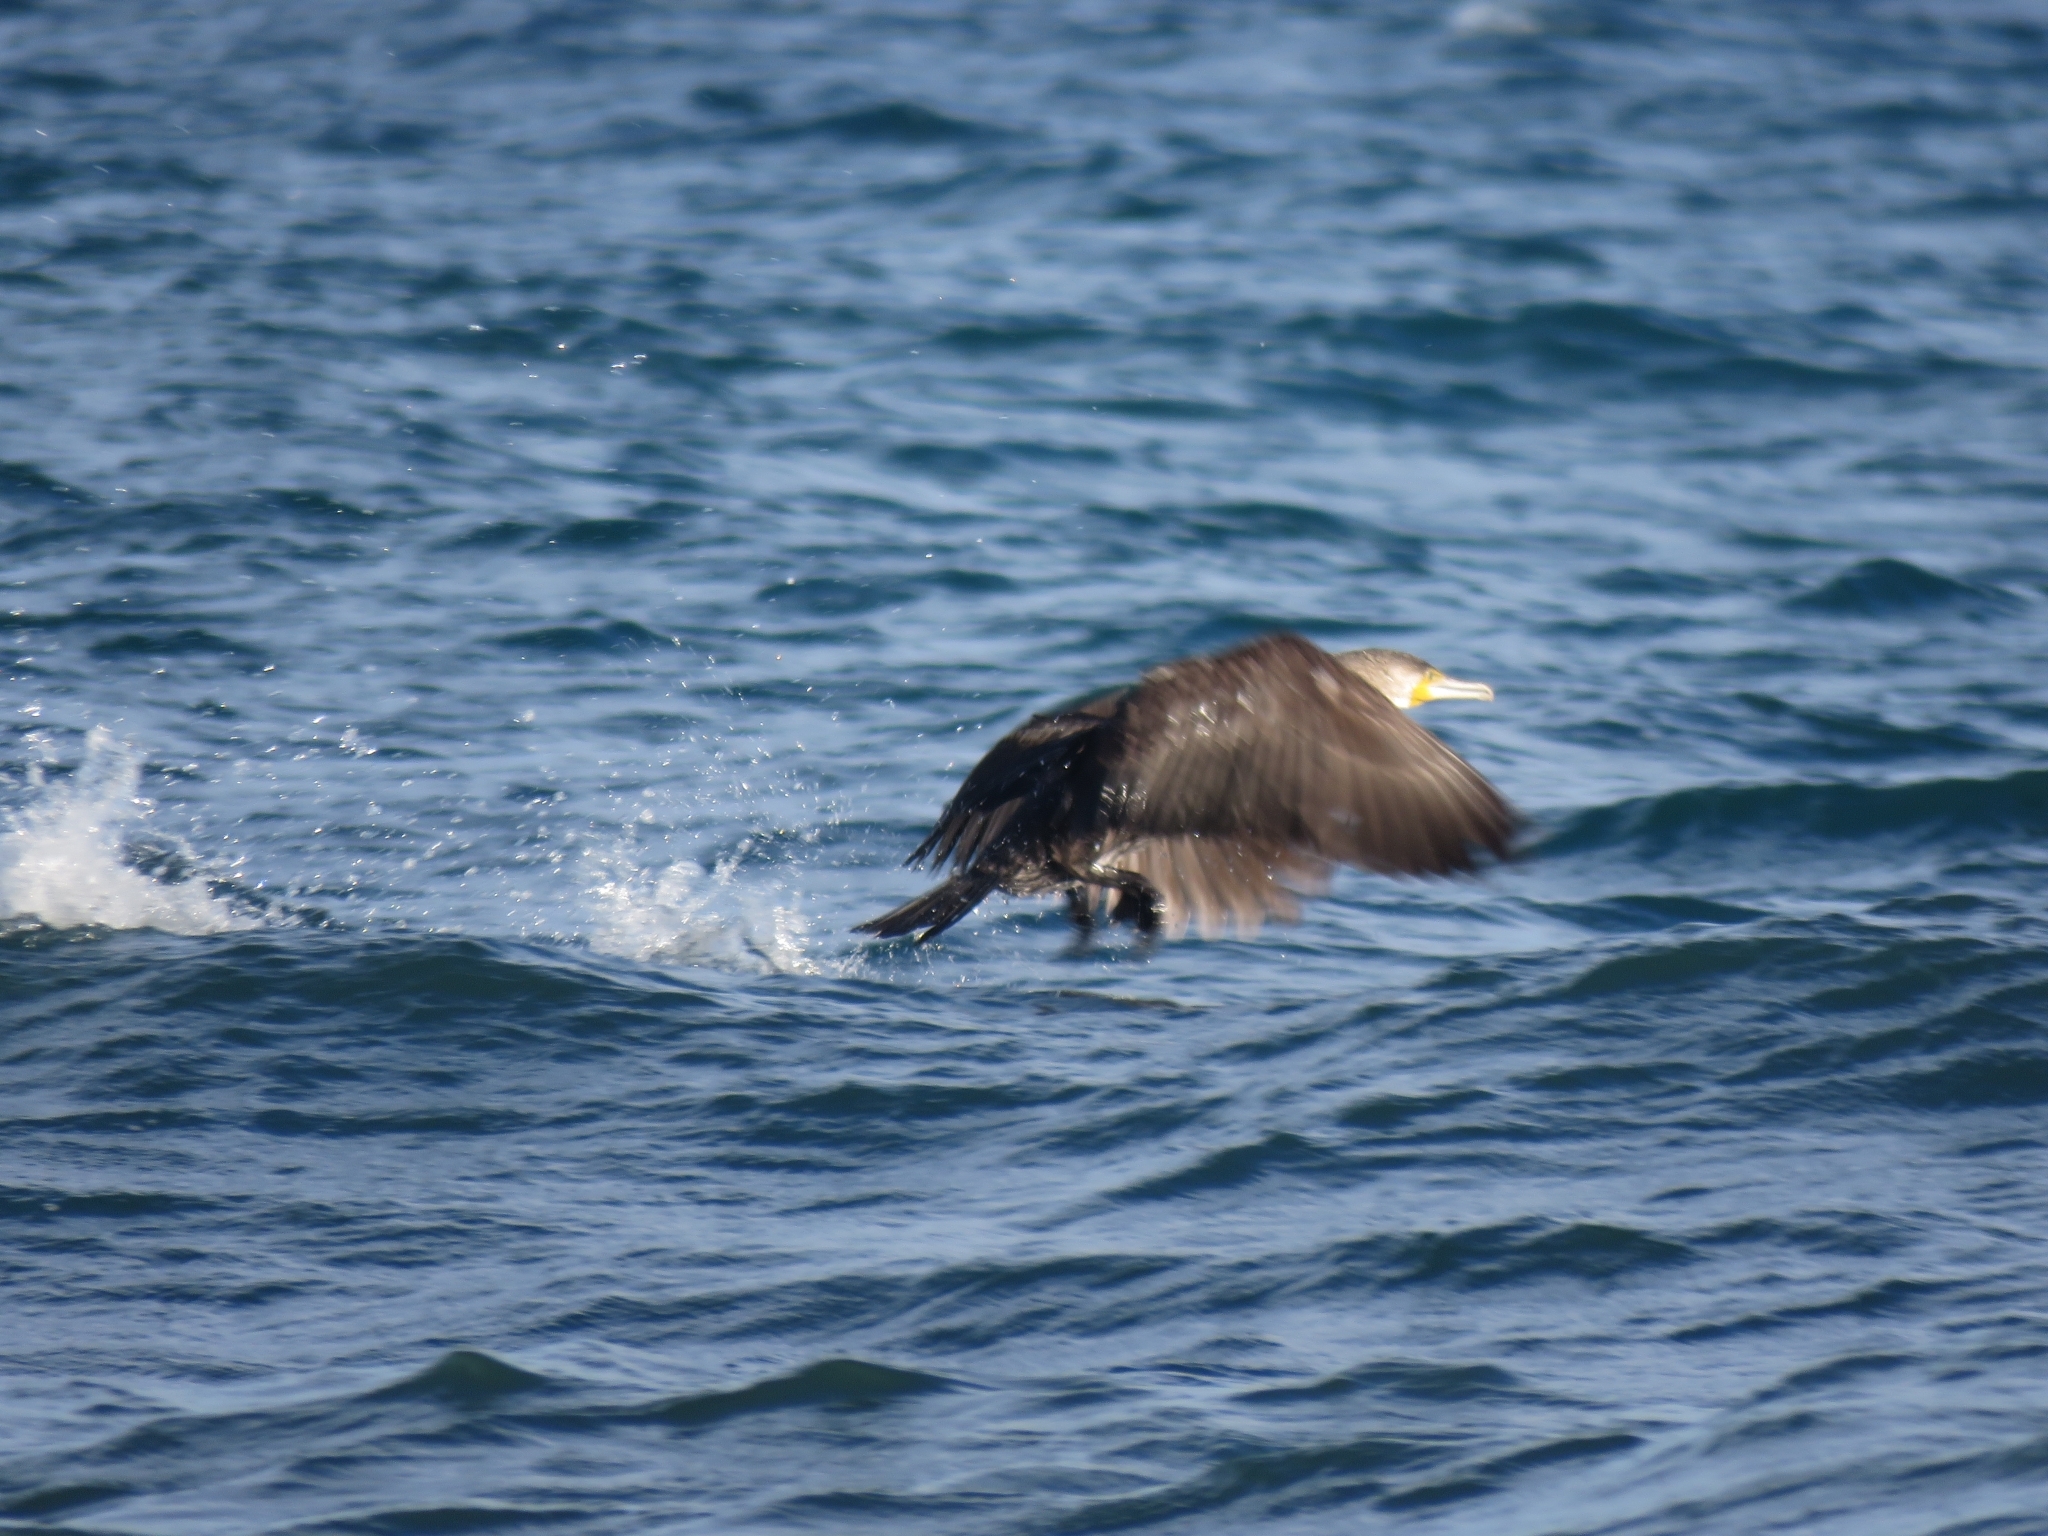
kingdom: Animalia
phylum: Chordata
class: Aves
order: Suliformes
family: Phalacrocoracidae
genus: Phalacrocorax
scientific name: Phalacrocorax carbo
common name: Great cormorant
